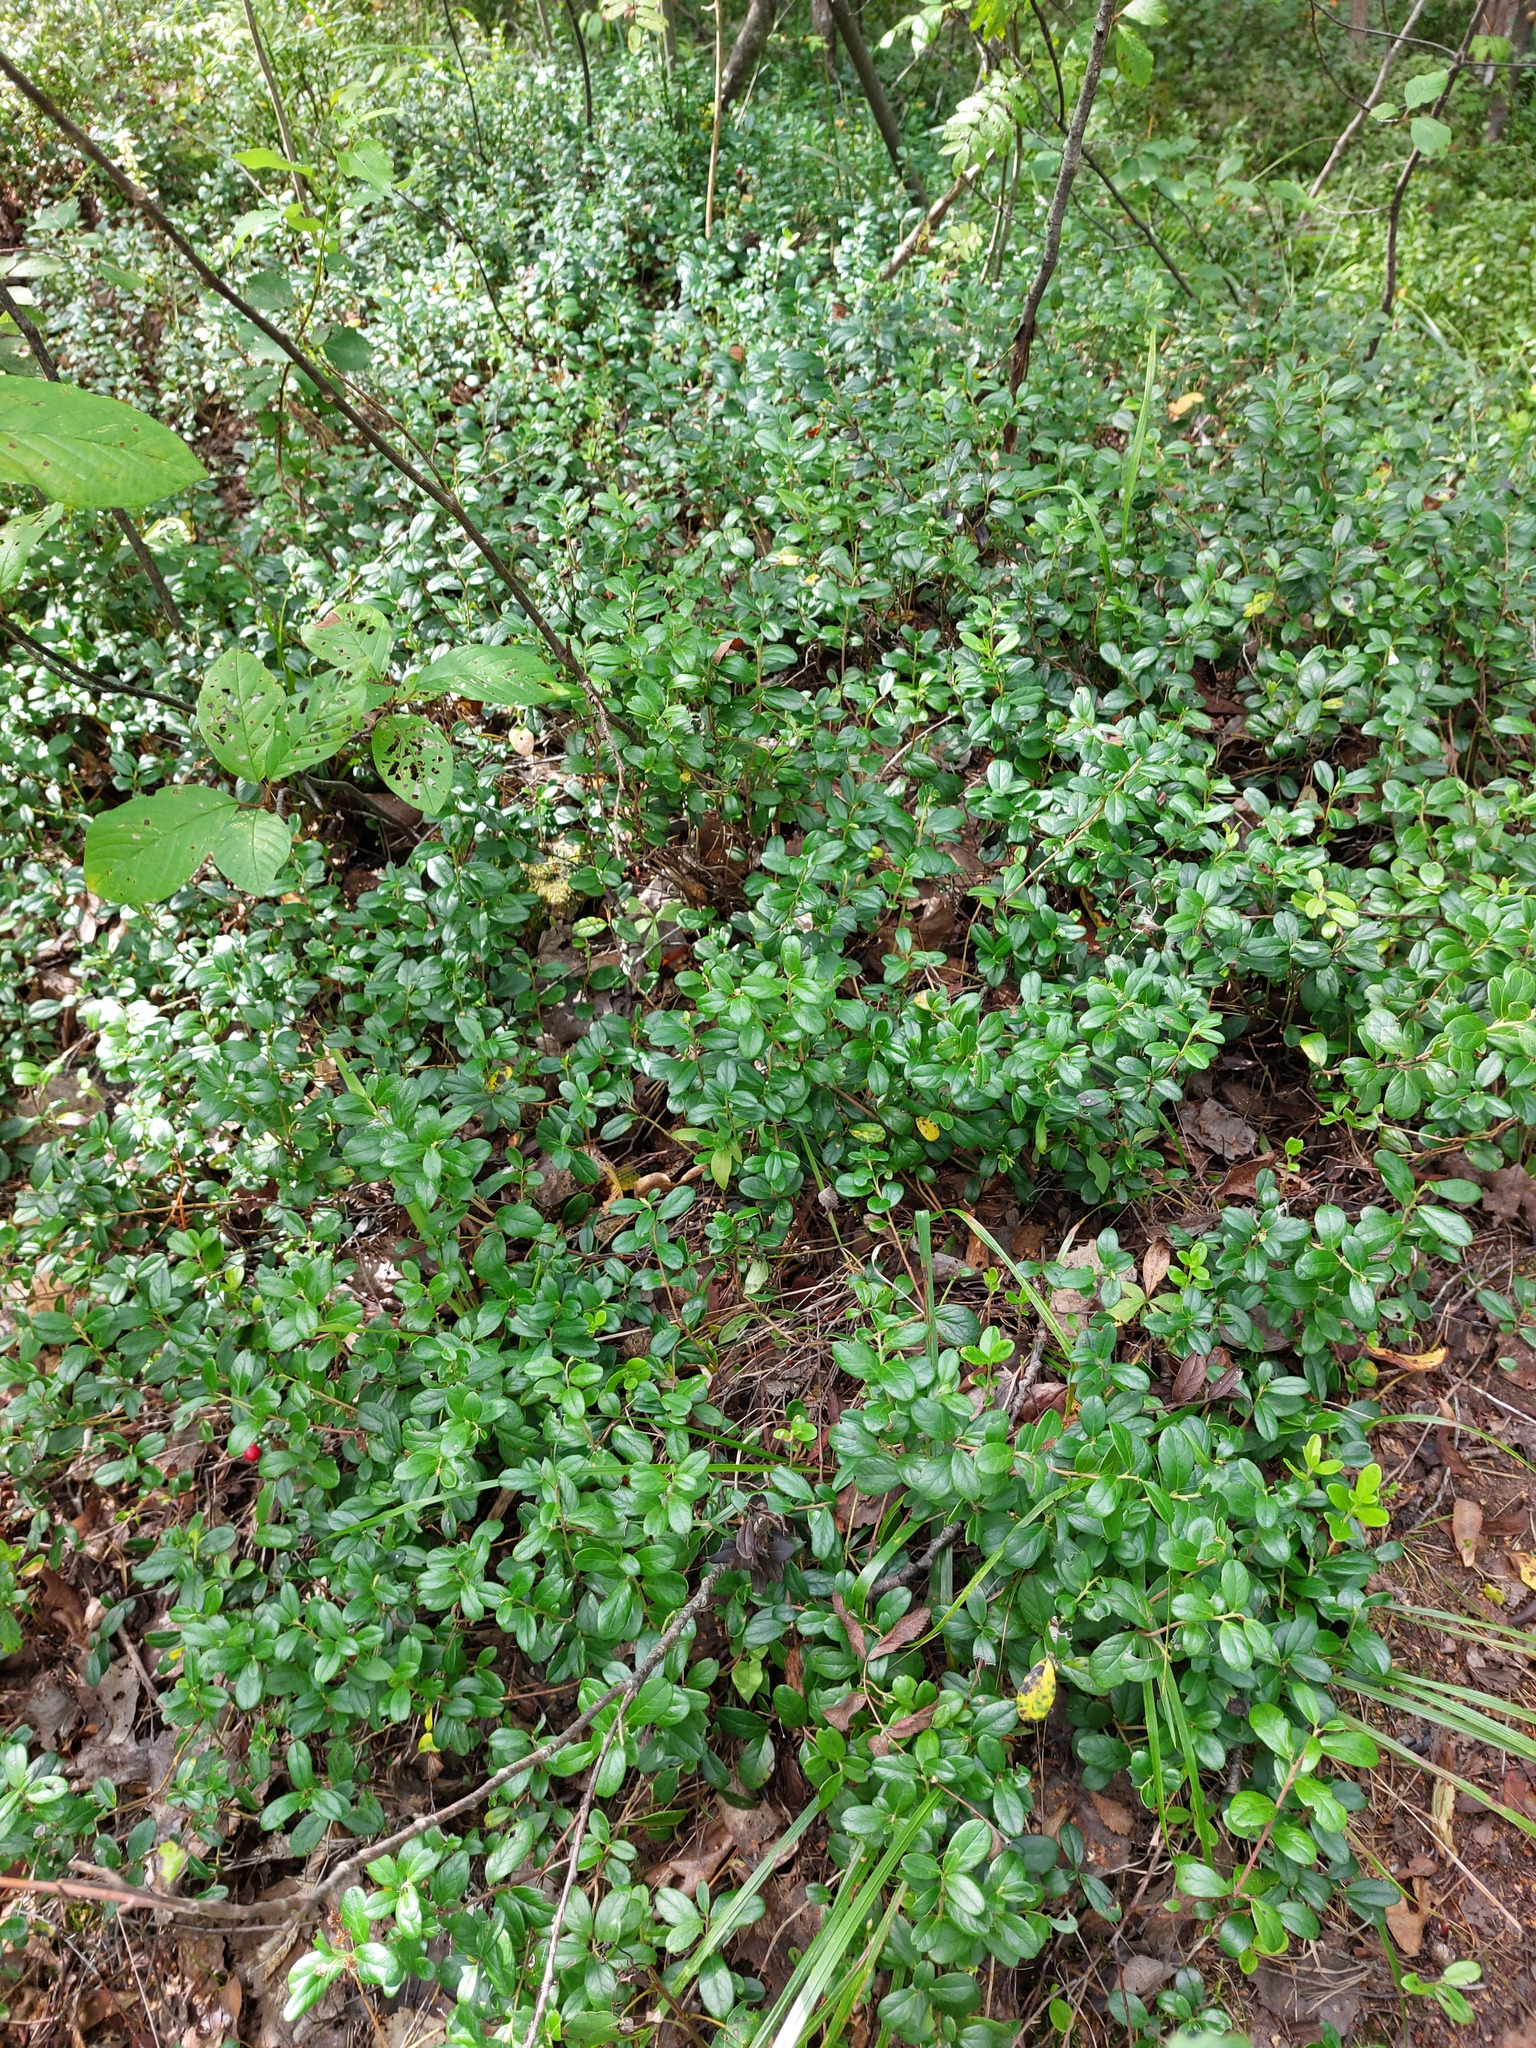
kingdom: Plantae
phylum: Tracheophyta
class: Magnoliopsida
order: Ericales
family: Ericaceae
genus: Vaccinium
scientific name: Vaccinium vitis-idaea
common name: Cowberry
